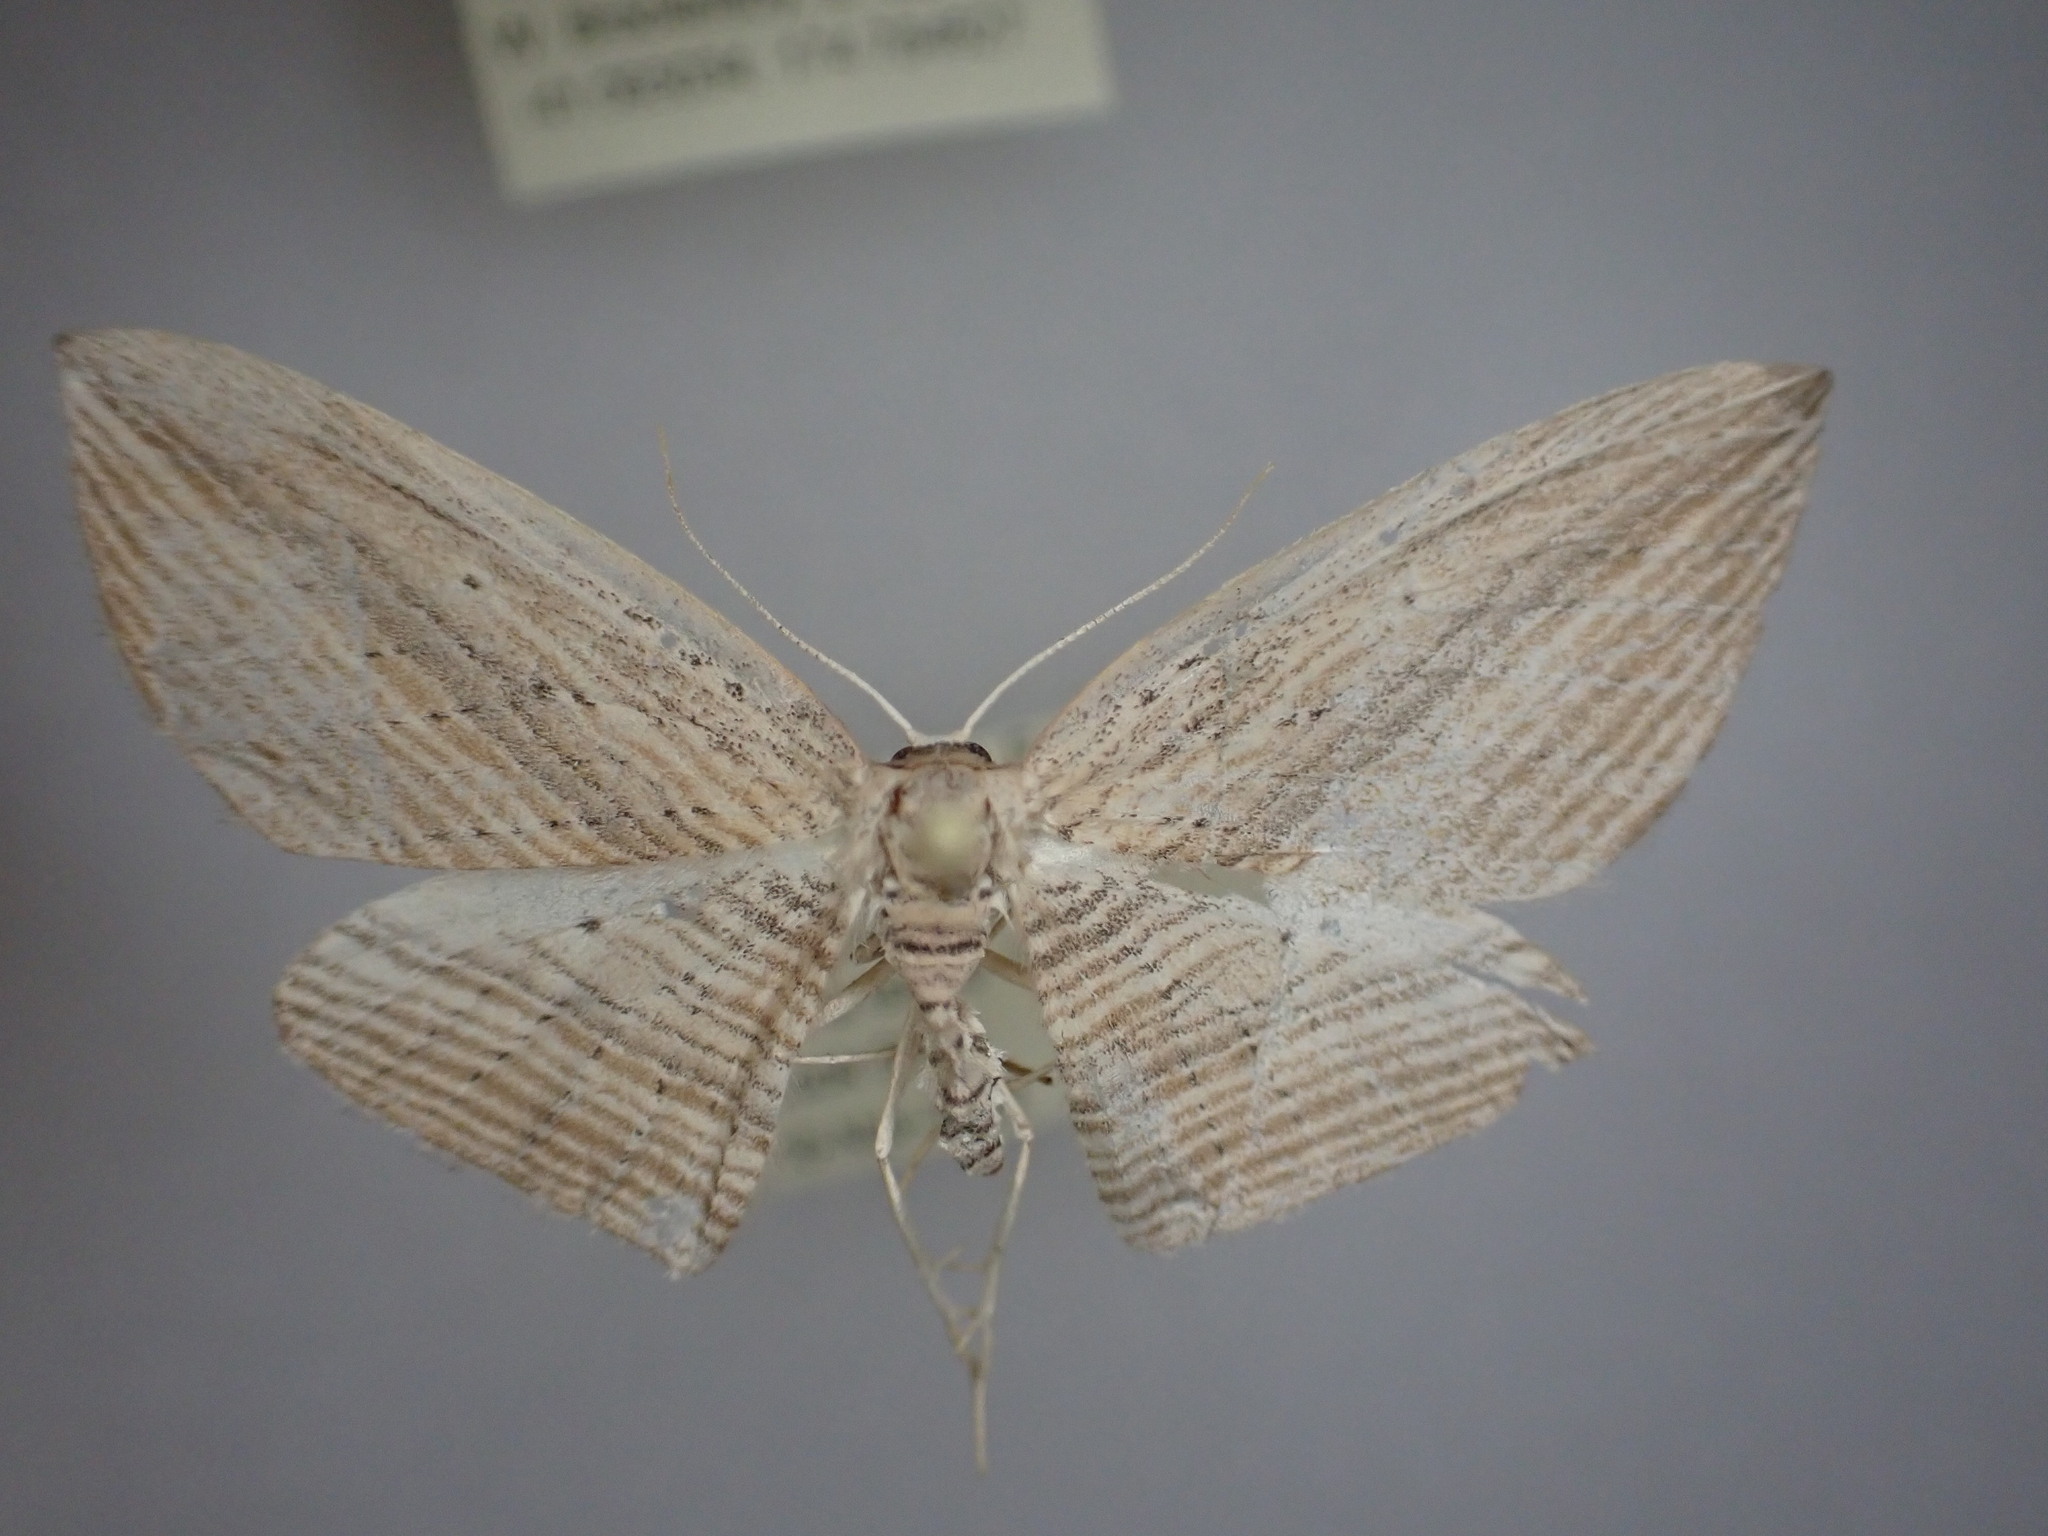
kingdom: Animalia
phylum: Arthropoda
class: Insecta
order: Lepidoptera
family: Geometridae
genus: Epiphryne
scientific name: Epiphryne verriculata
